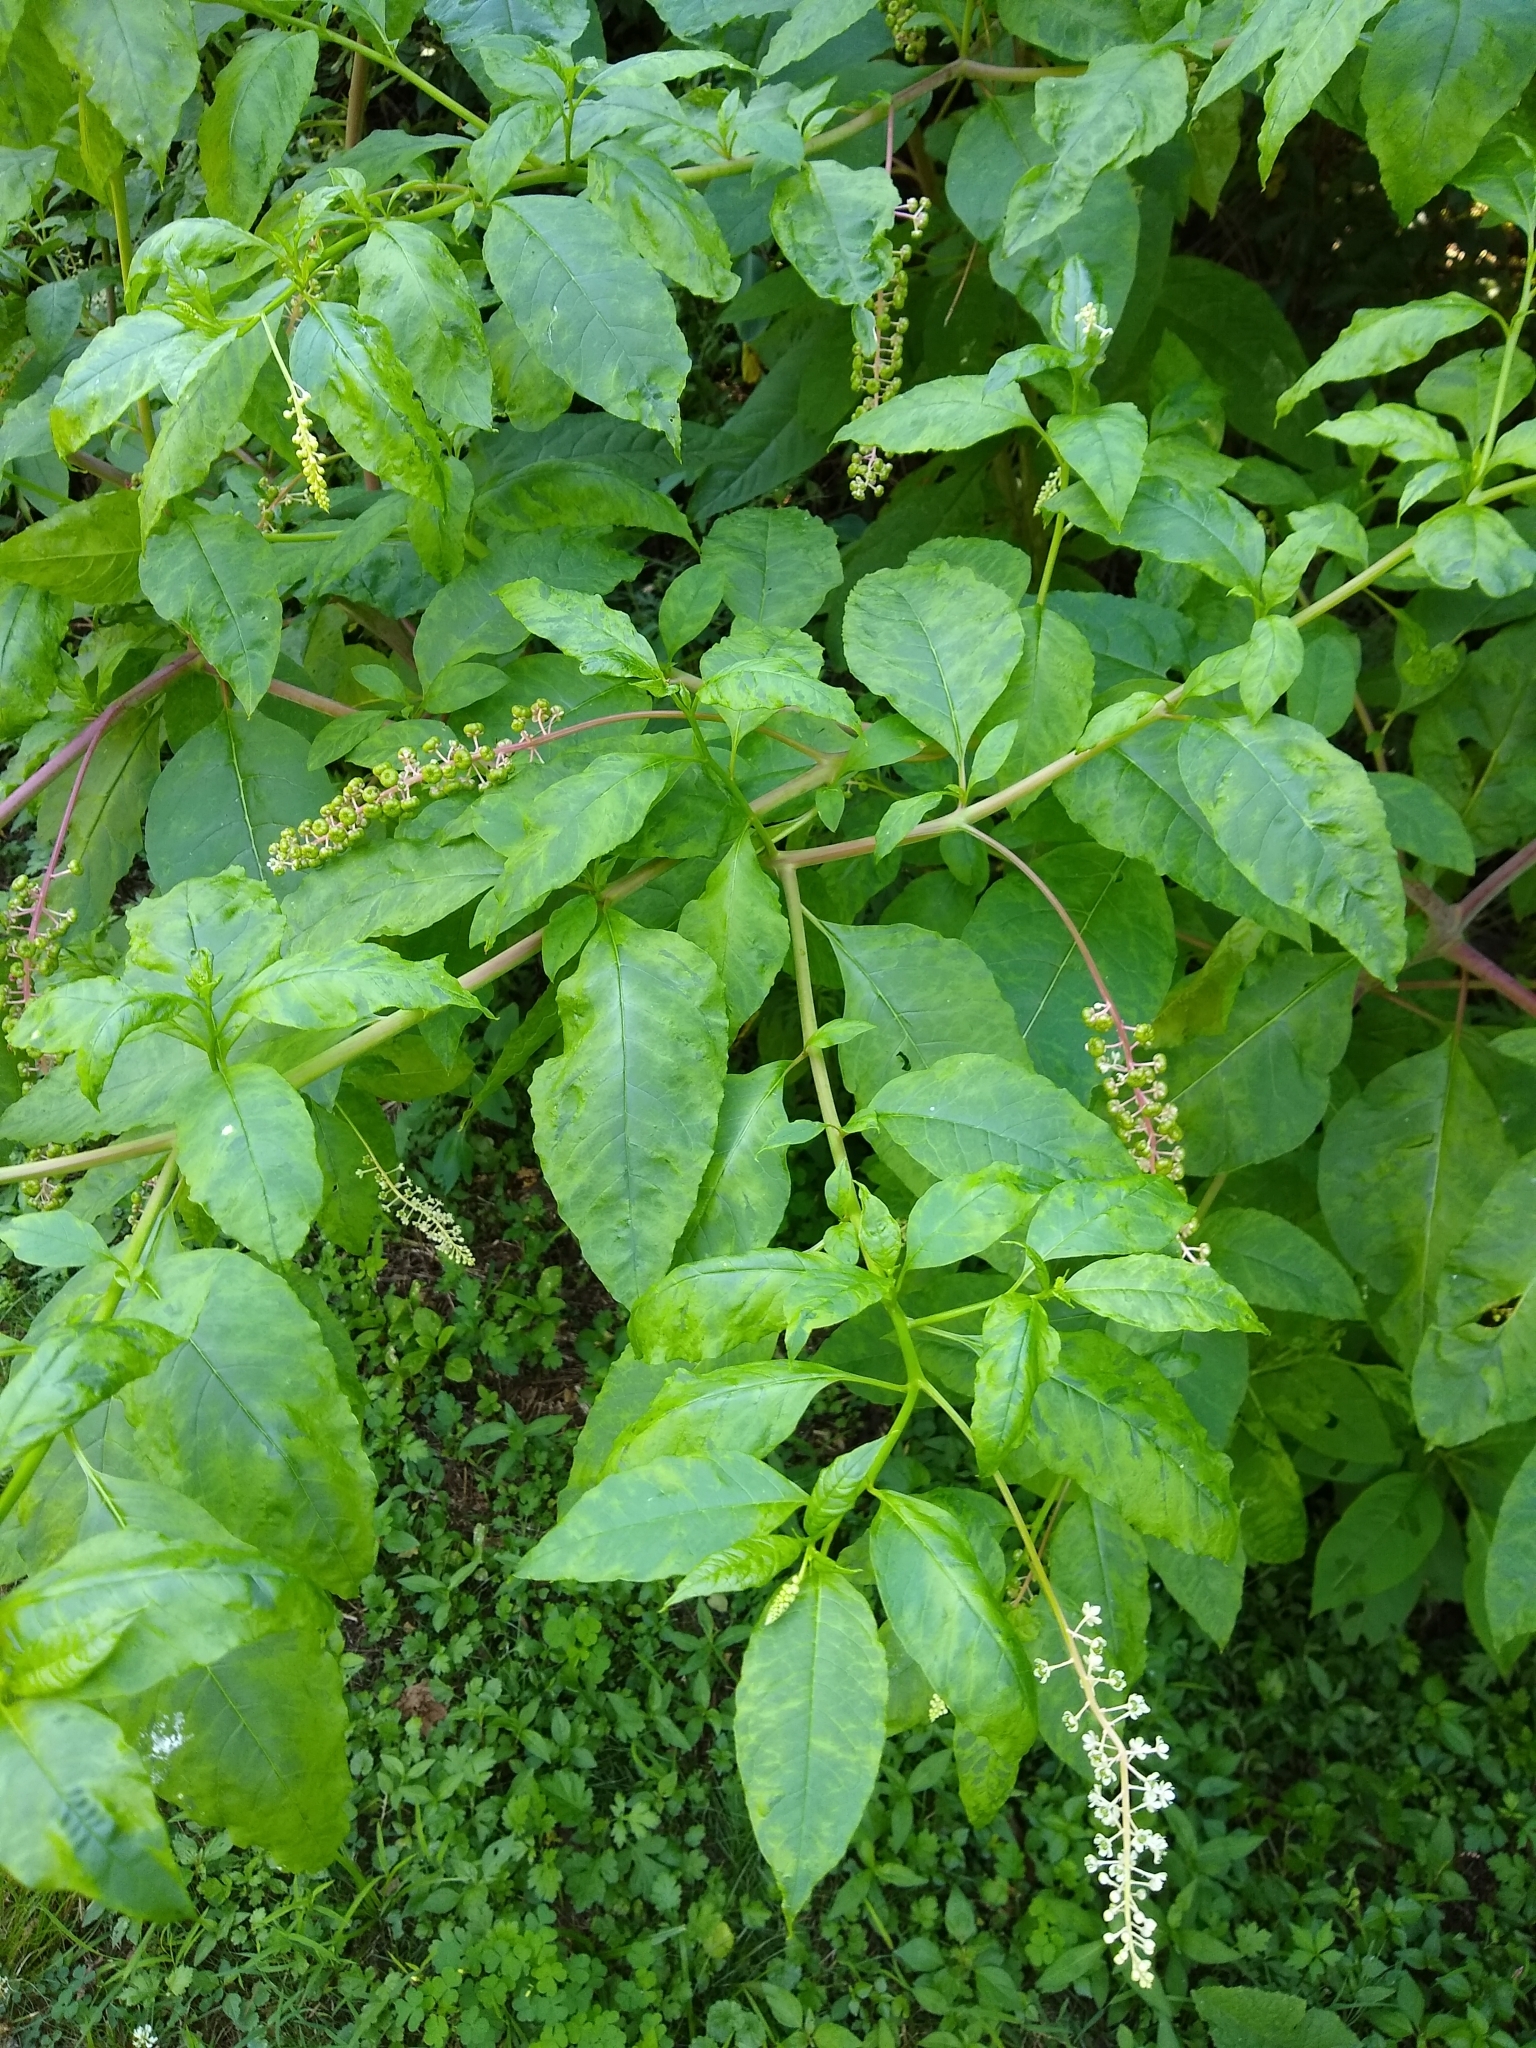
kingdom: Viruses
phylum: Pisuviricota
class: Stelpaviricetes
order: Patatavirales
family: Potyviridae
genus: Potyvirus
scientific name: Potyvirus Pokeweed mosaic virus
